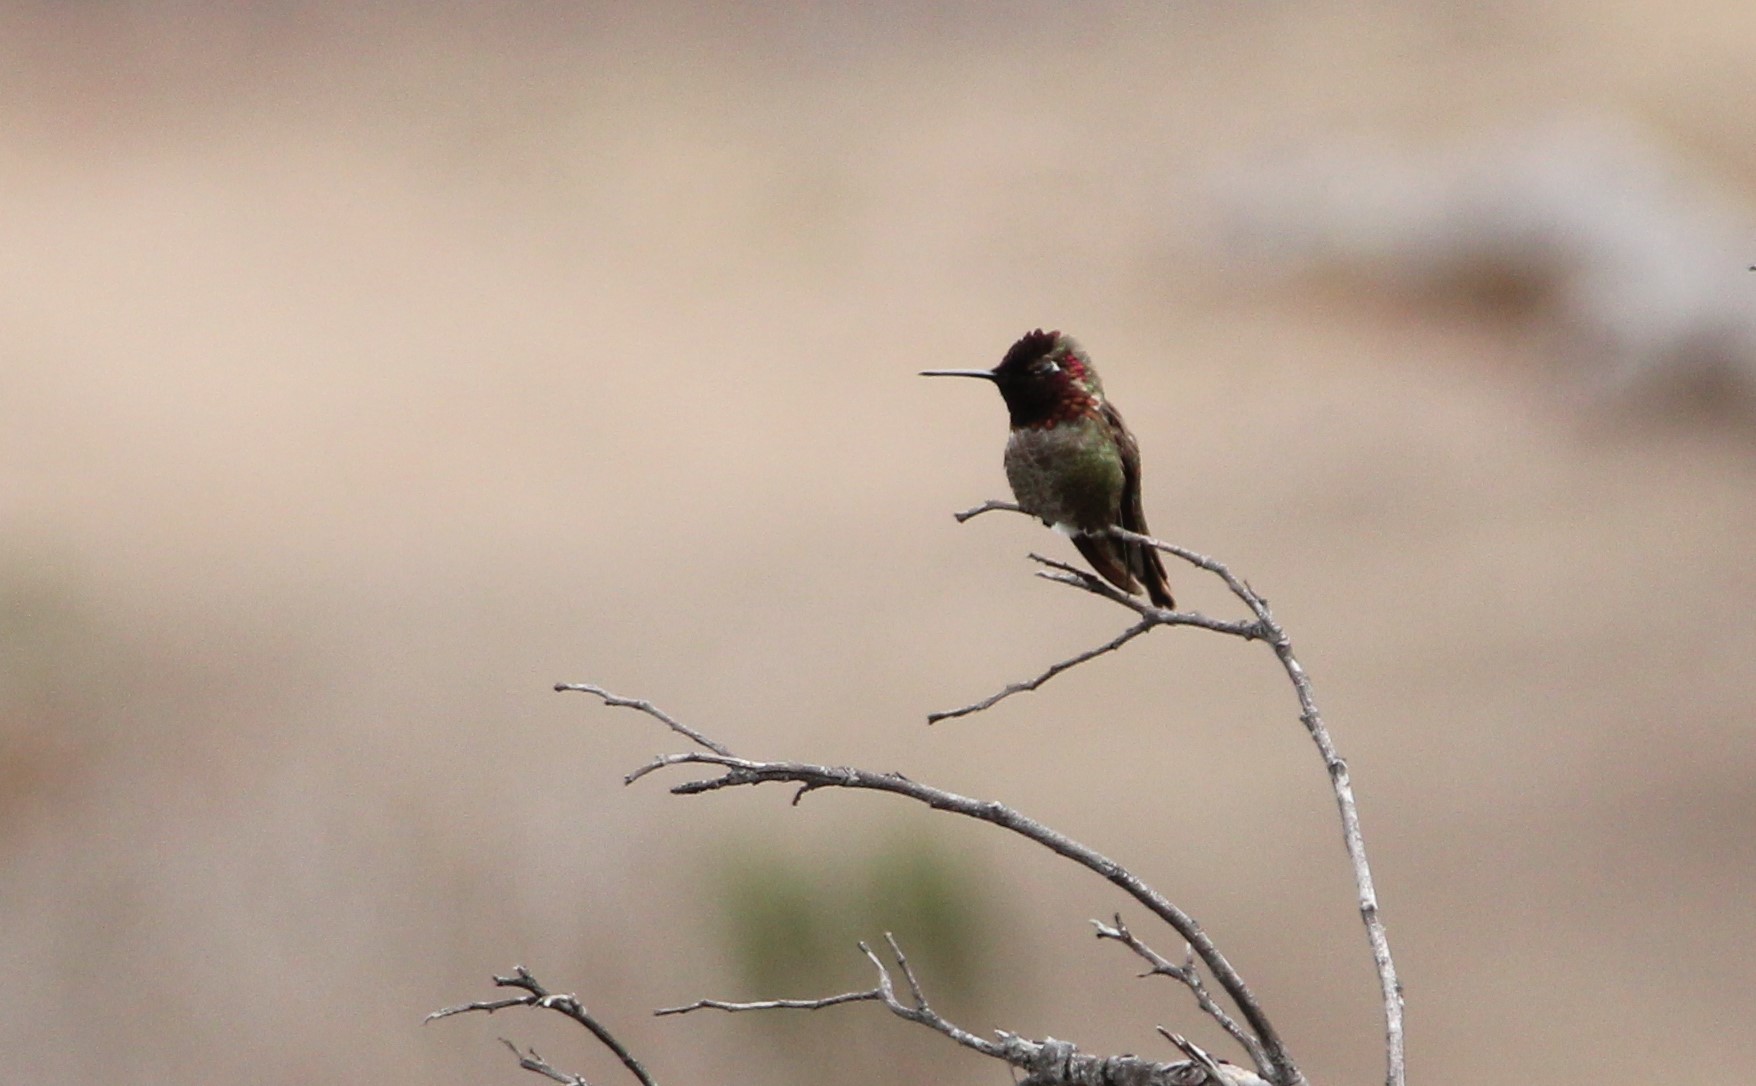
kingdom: Animalia
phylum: Chordata
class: Aves
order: Apodiformes
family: Trochilidae
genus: Calypte
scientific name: Calypte anna
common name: Anna's hummingbird
